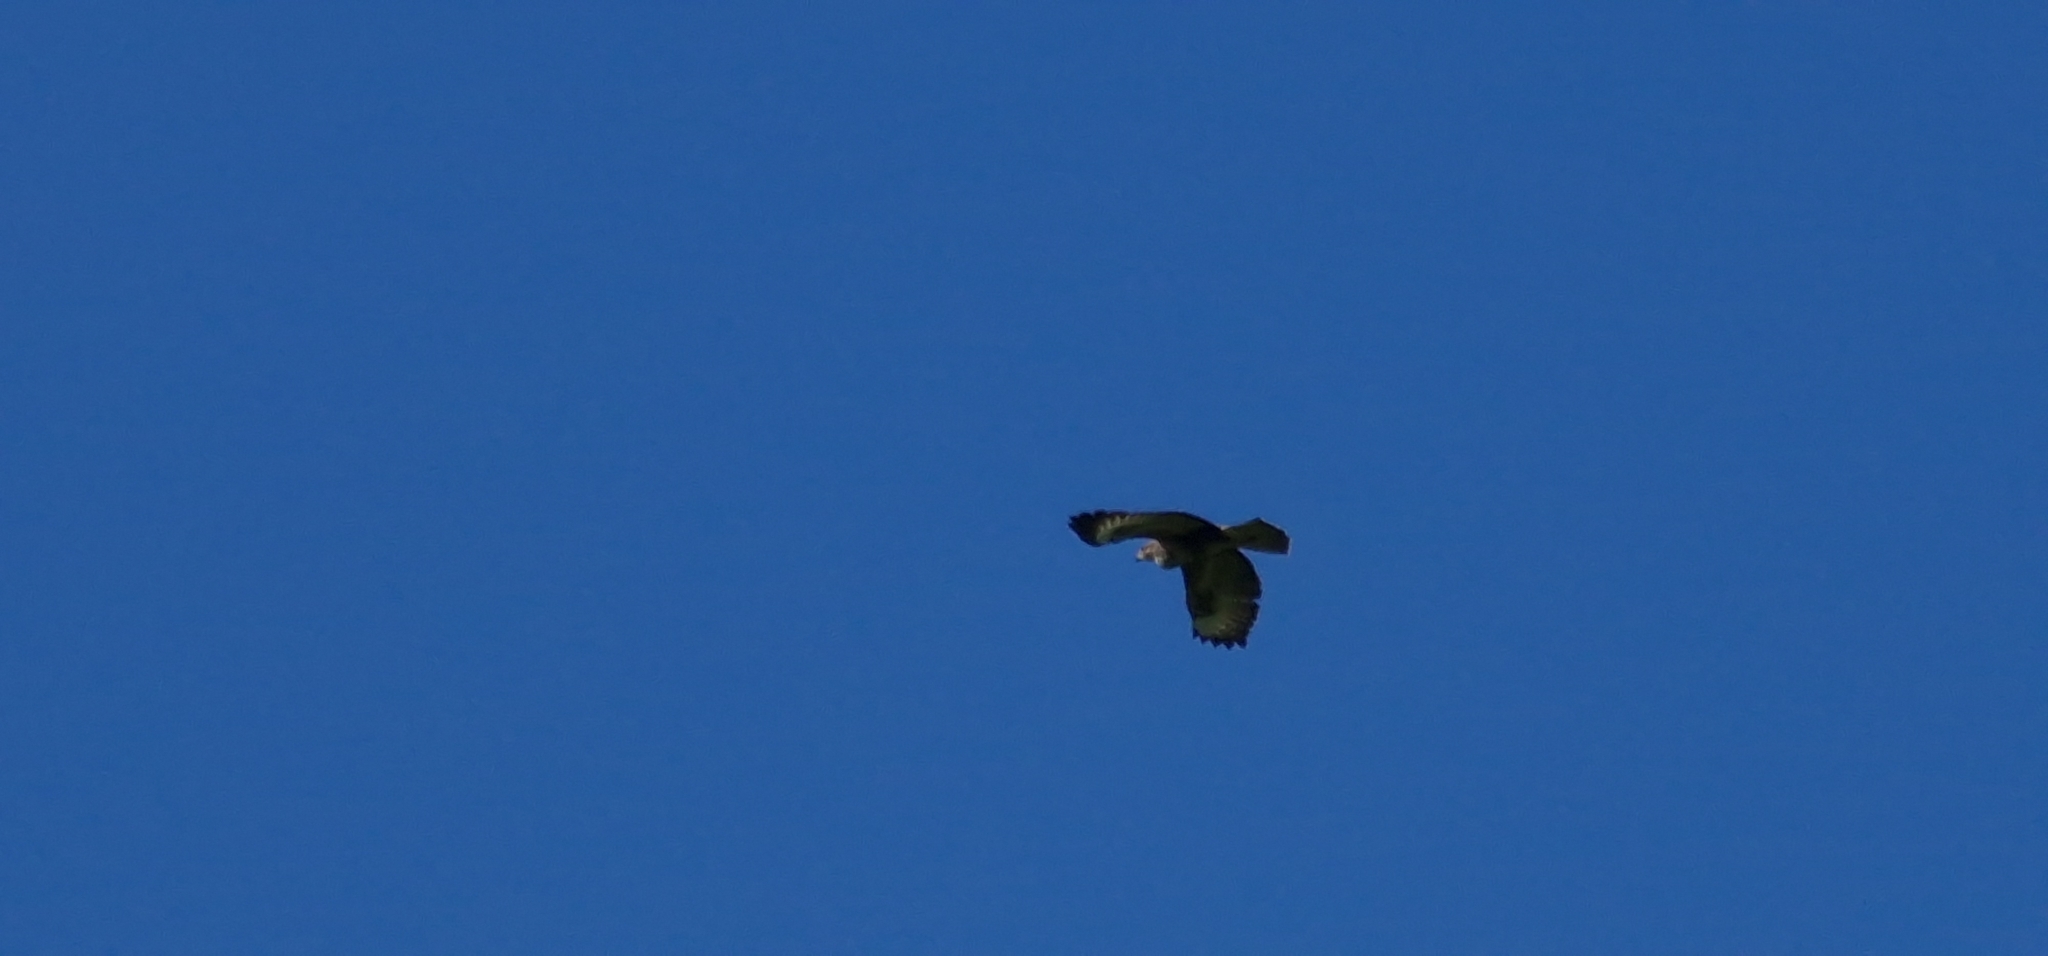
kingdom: Animalia
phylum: Chordata
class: Aves
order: Accipitriformes
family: Accipitridae
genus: Buteo
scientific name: Buteo buteo
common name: Common buzzard
